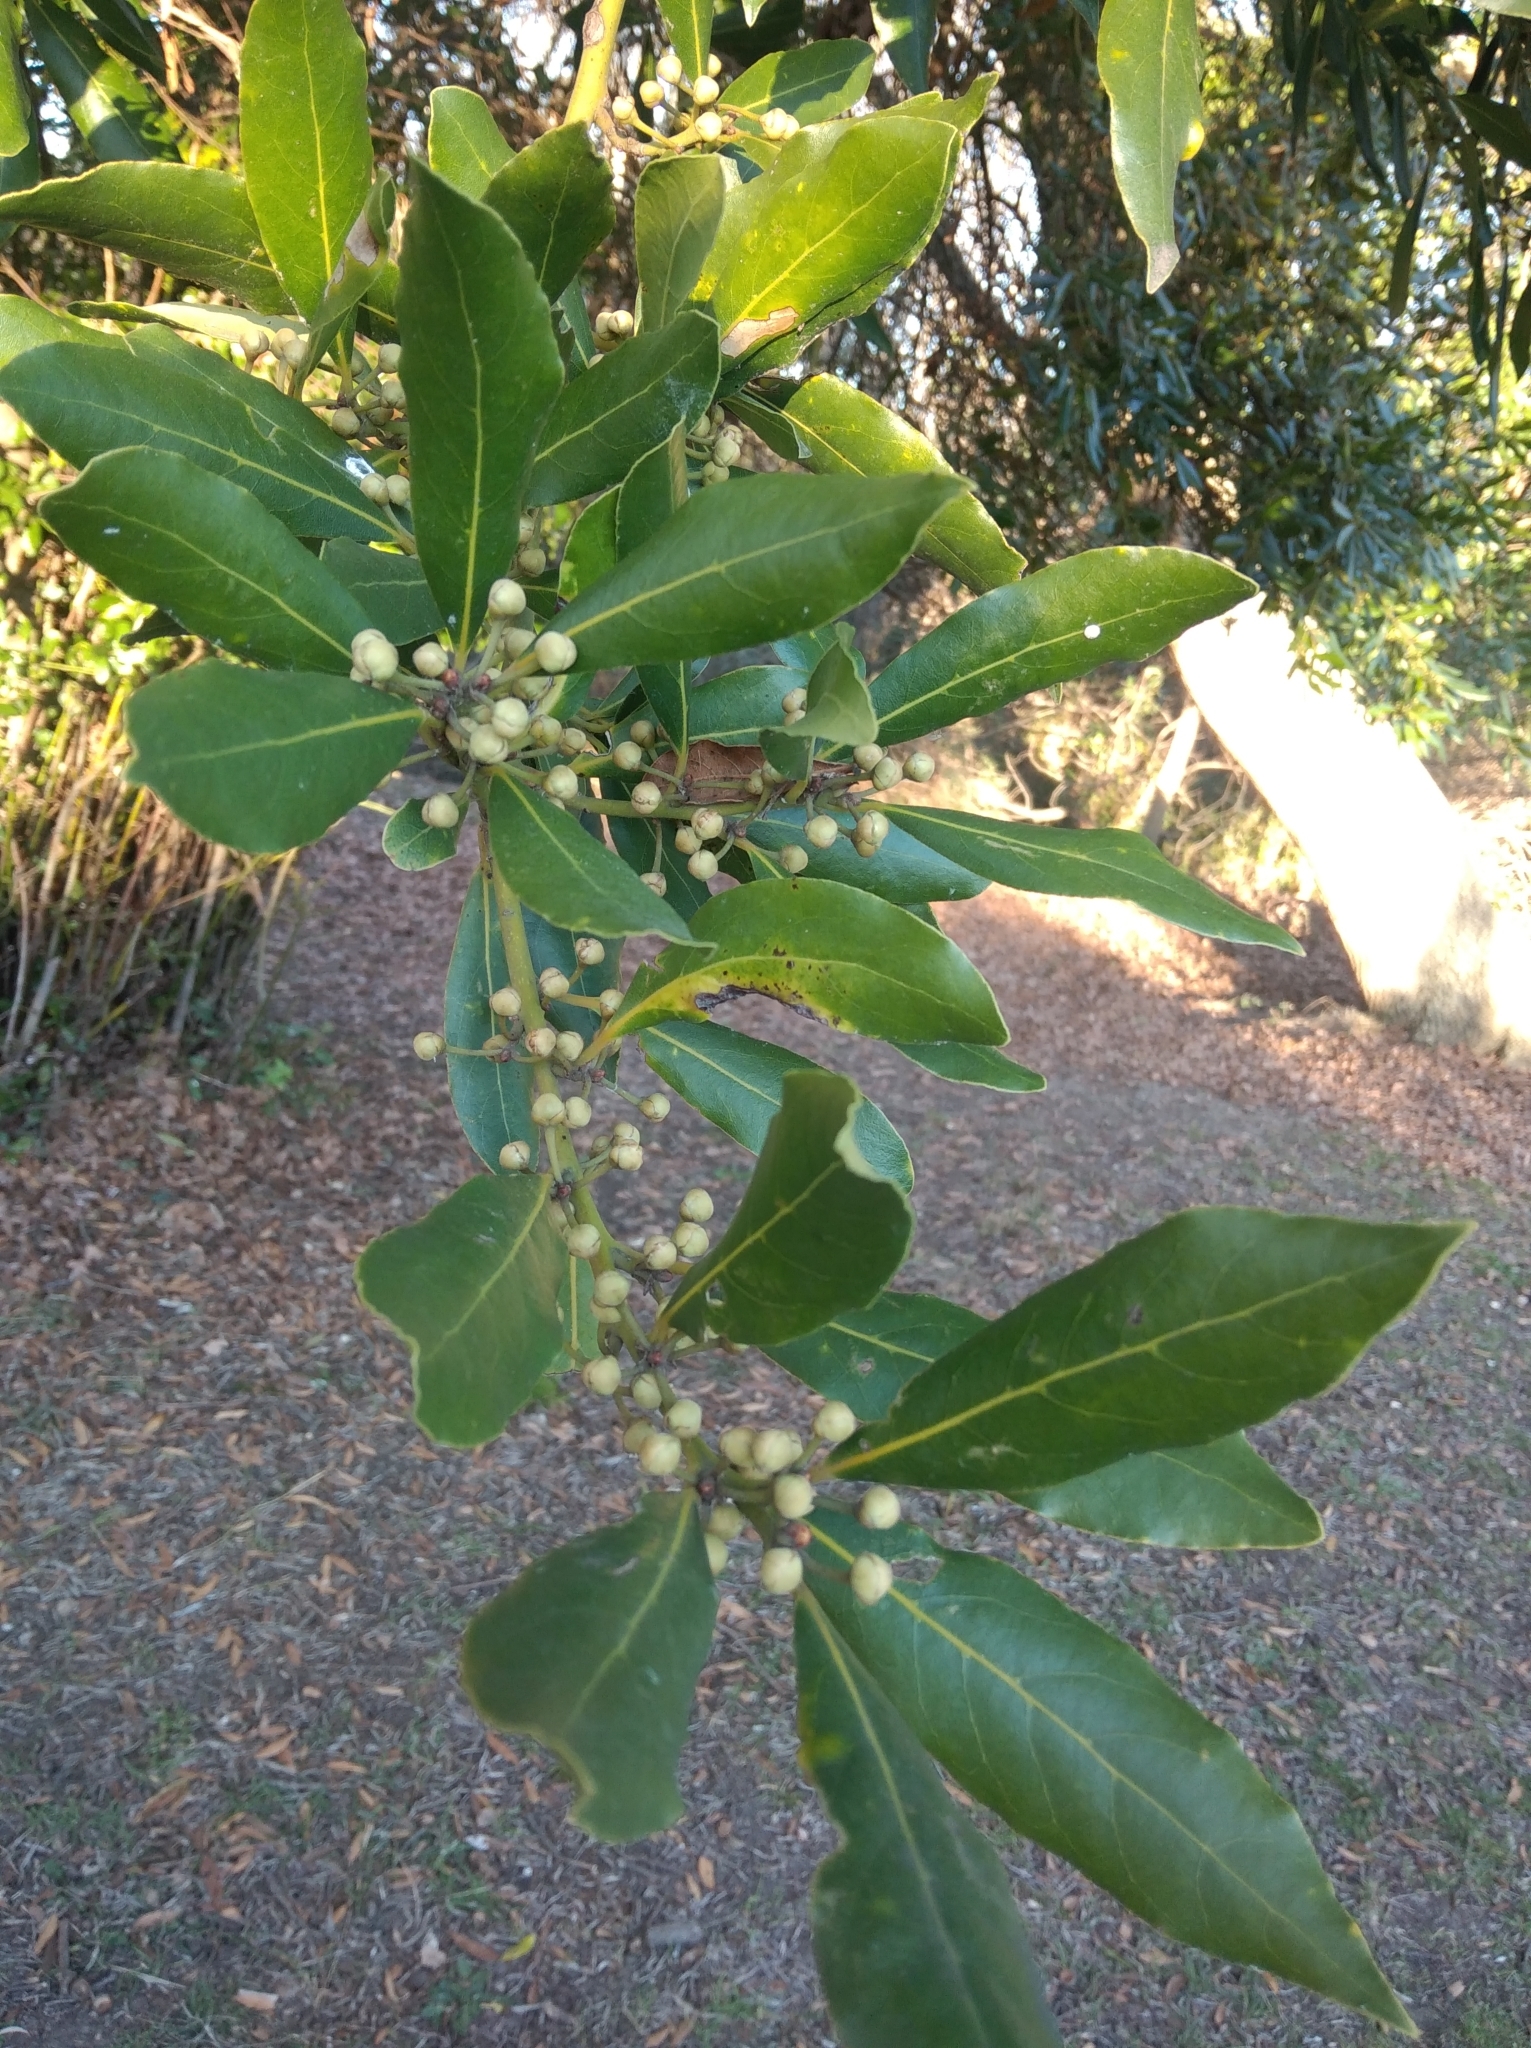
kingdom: Plantae
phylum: Tracheophyta
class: Magnoliopsida
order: Laurales
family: Lauraceae
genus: Laurus
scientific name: Laurus nobilis
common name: Bay
